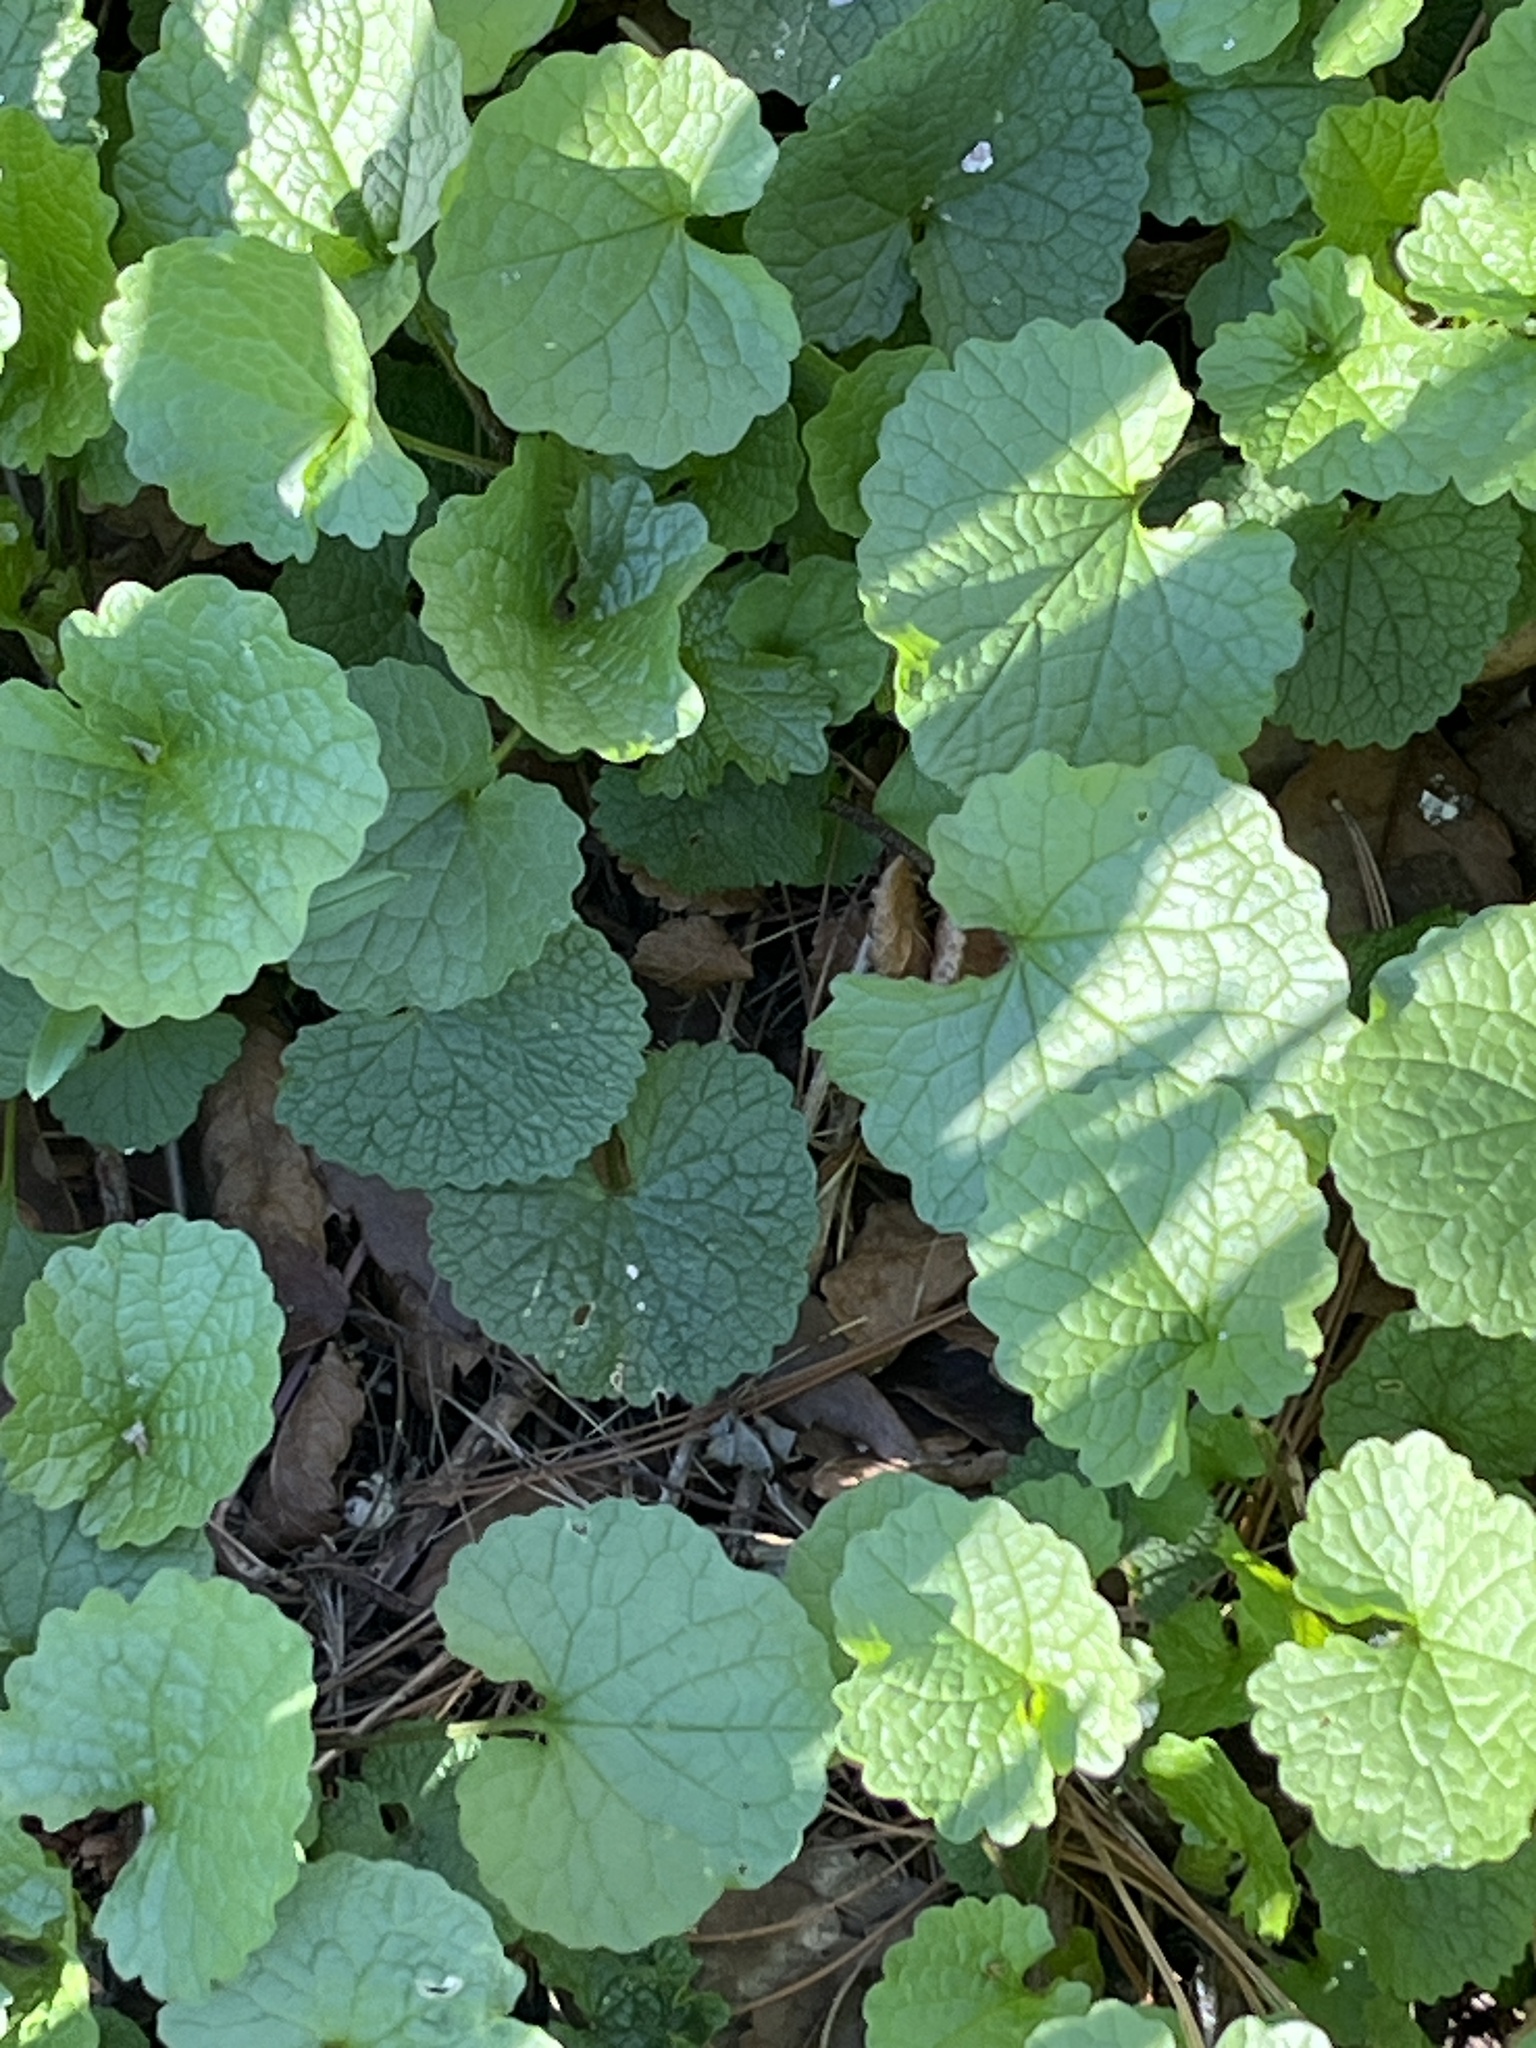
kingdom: Plantae
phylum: Tracheophyta
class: Magnoliopsida
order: Brassicales
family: Brassicaceae
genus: Alliaria
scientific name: Alliaria petiolata
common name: Garlic mustard
